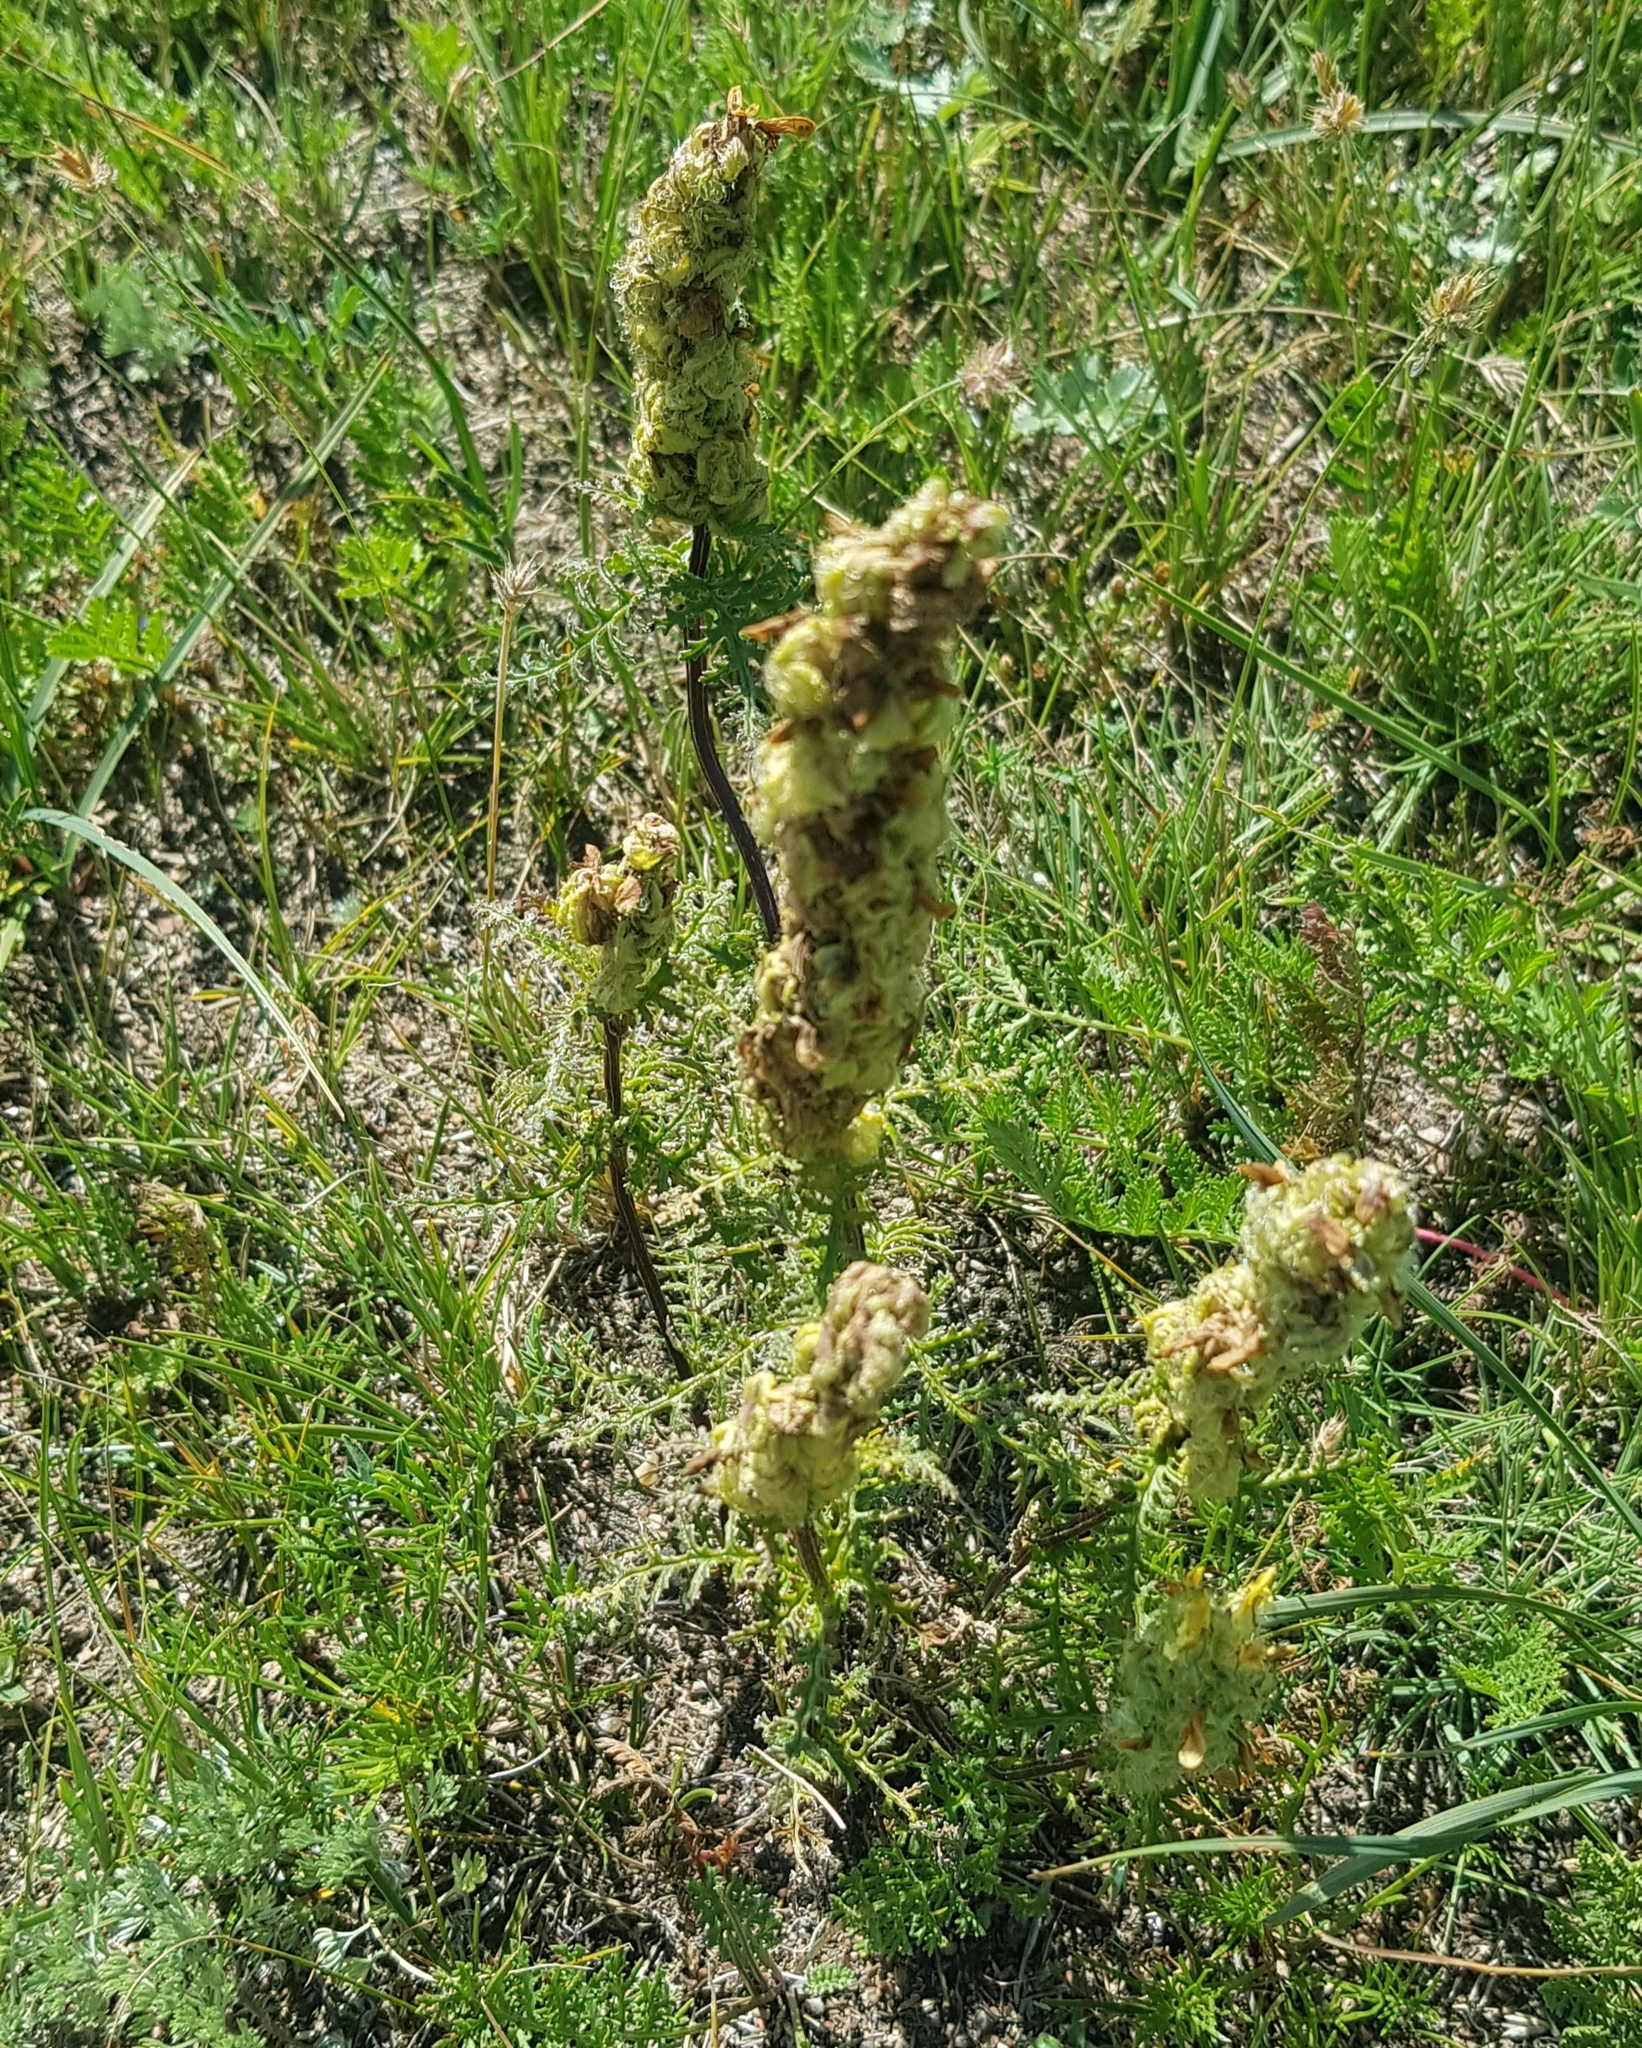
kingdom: Plantae
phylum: Tracheophyta
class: Magnoliopsida
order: Lamiales
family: Orobanchaceae
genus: Pedicularis
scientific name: Pedicularis myriophylla
